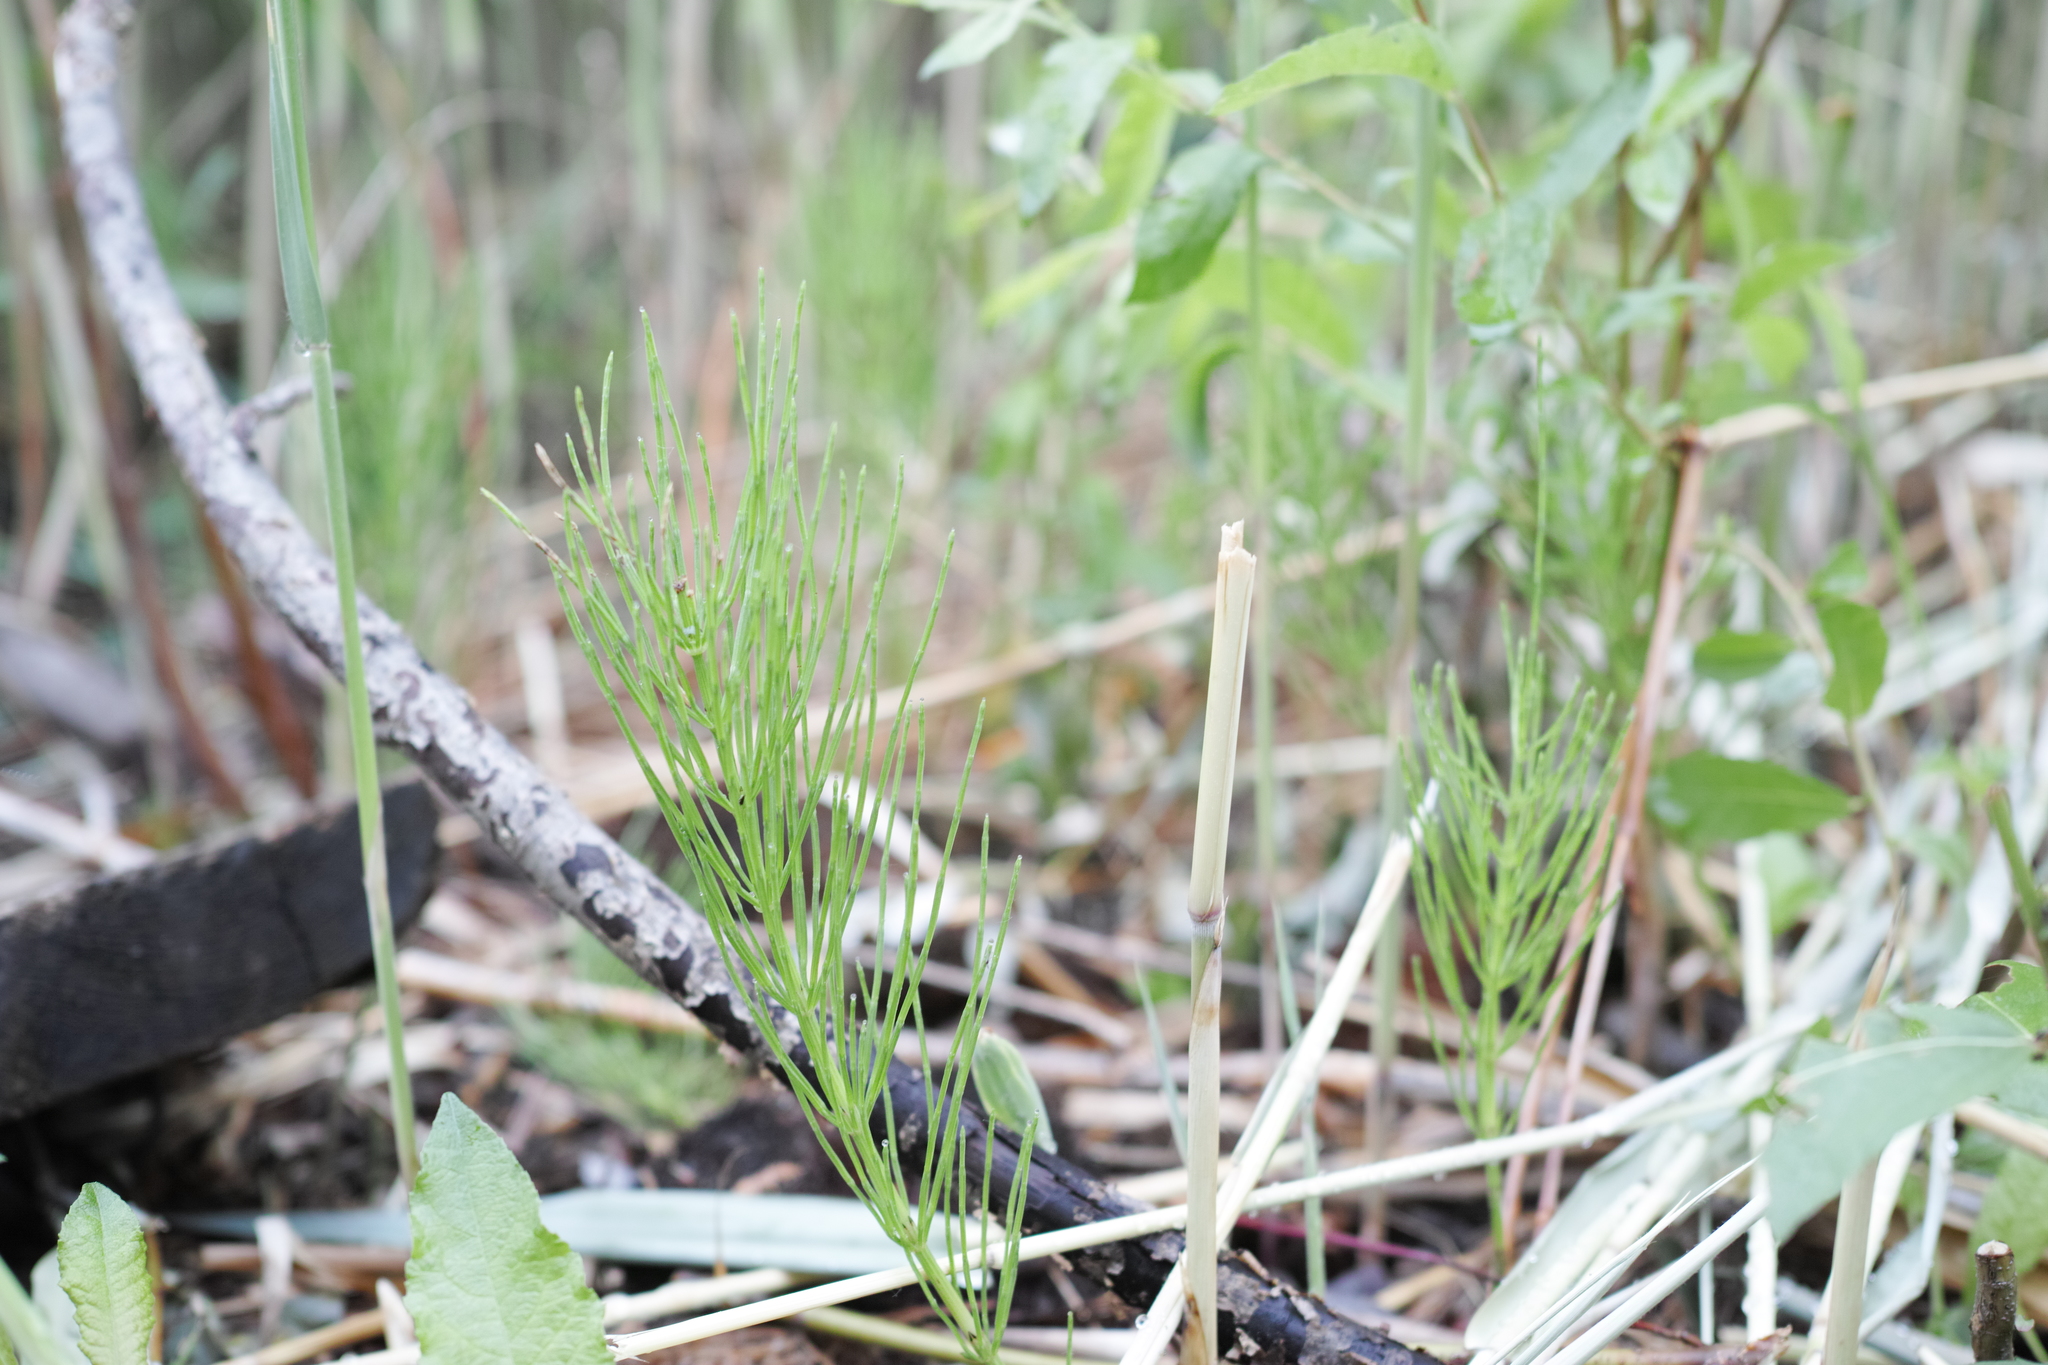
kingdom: Plantae
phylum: Tracheophyta
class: Polypodiopsida
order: Equisetales
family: Equisetaceae
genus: Equisetum
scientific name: Equisetum arvense
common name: Field horsetail
